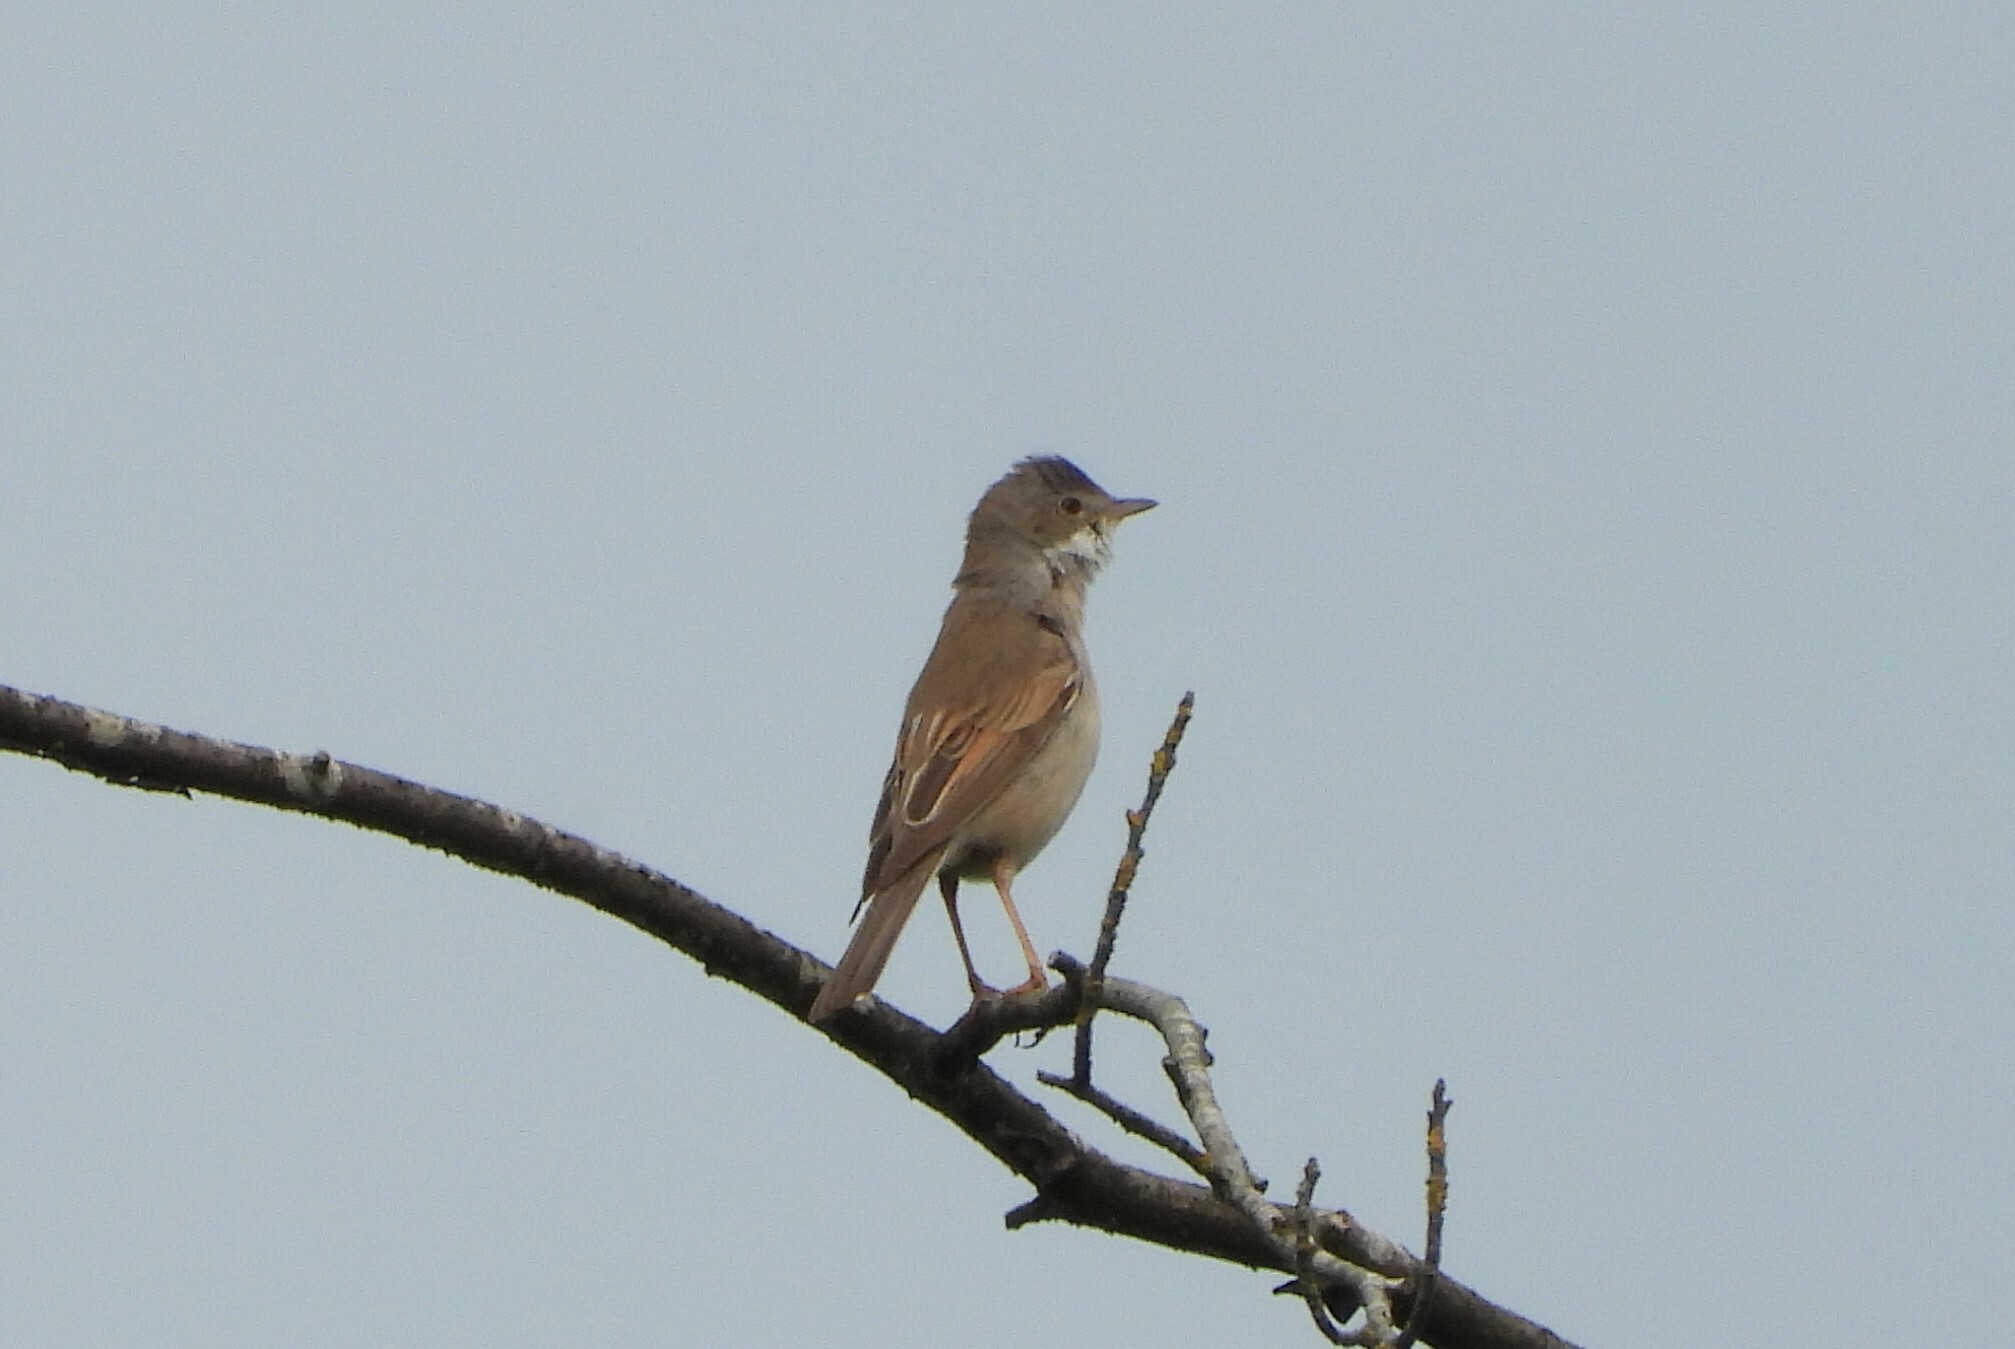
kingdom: Animalia
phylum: Chordata
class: Aves
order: Passeriformes
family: Sylviidae
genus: Sylvia
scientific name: Sylvia communis
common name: Common whitethroat
